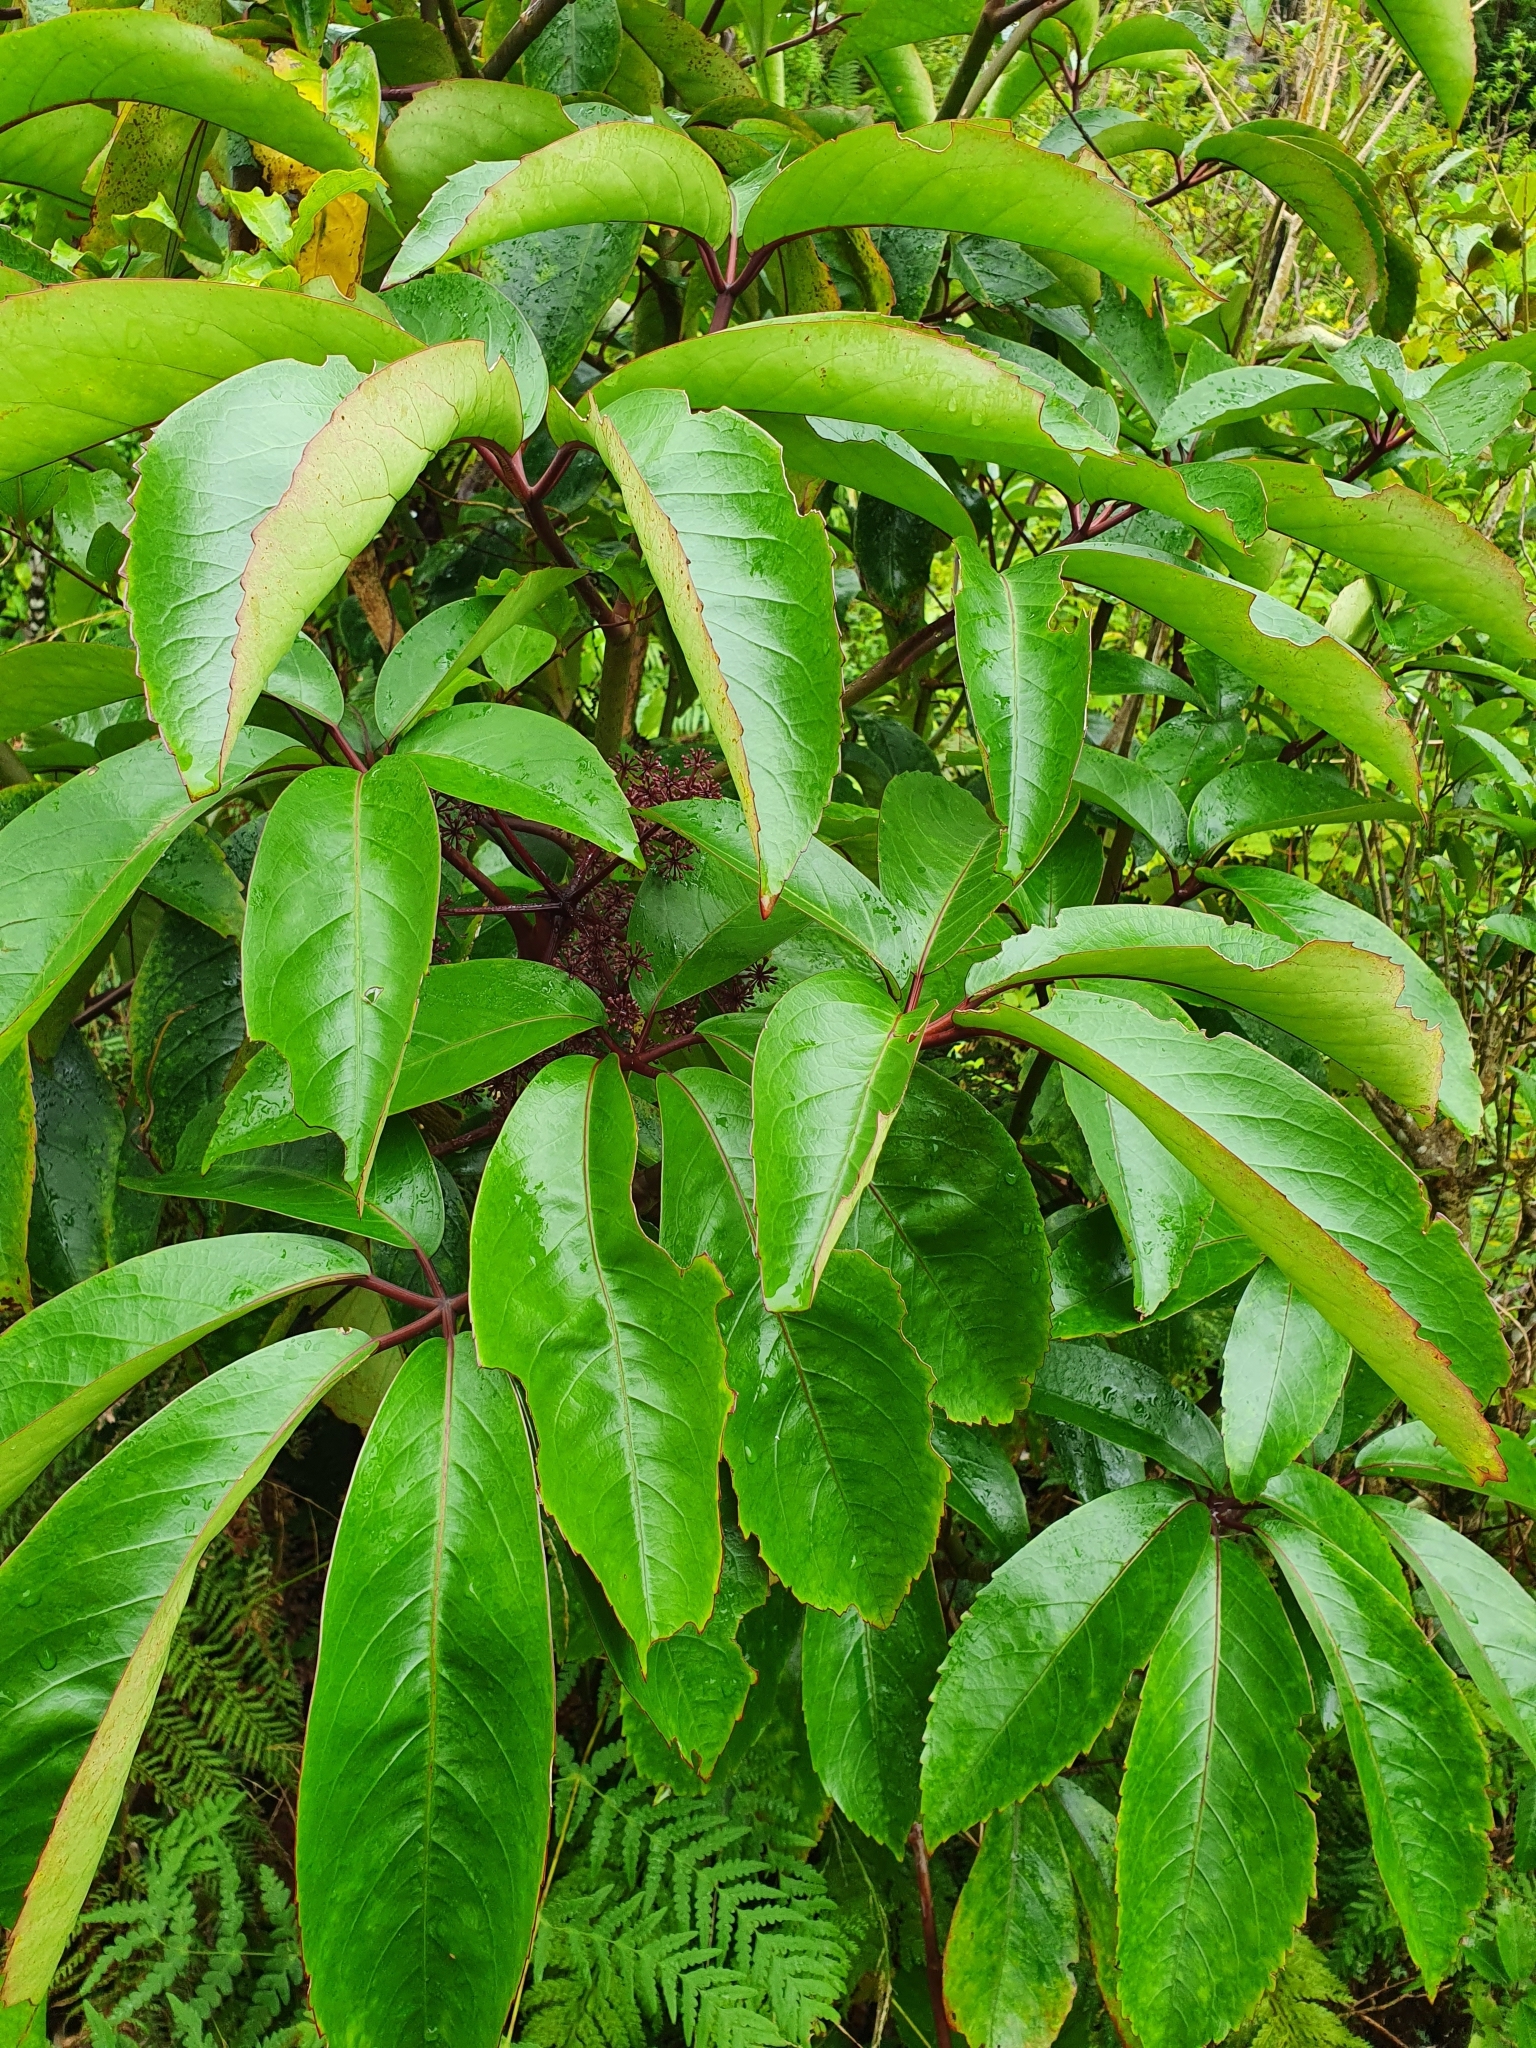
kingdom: Plantae
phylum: Tracheophyta
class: Magnoliopsida
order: Apiales
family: Araliaceae
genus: Neopanax
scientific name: Neopanax laetus
